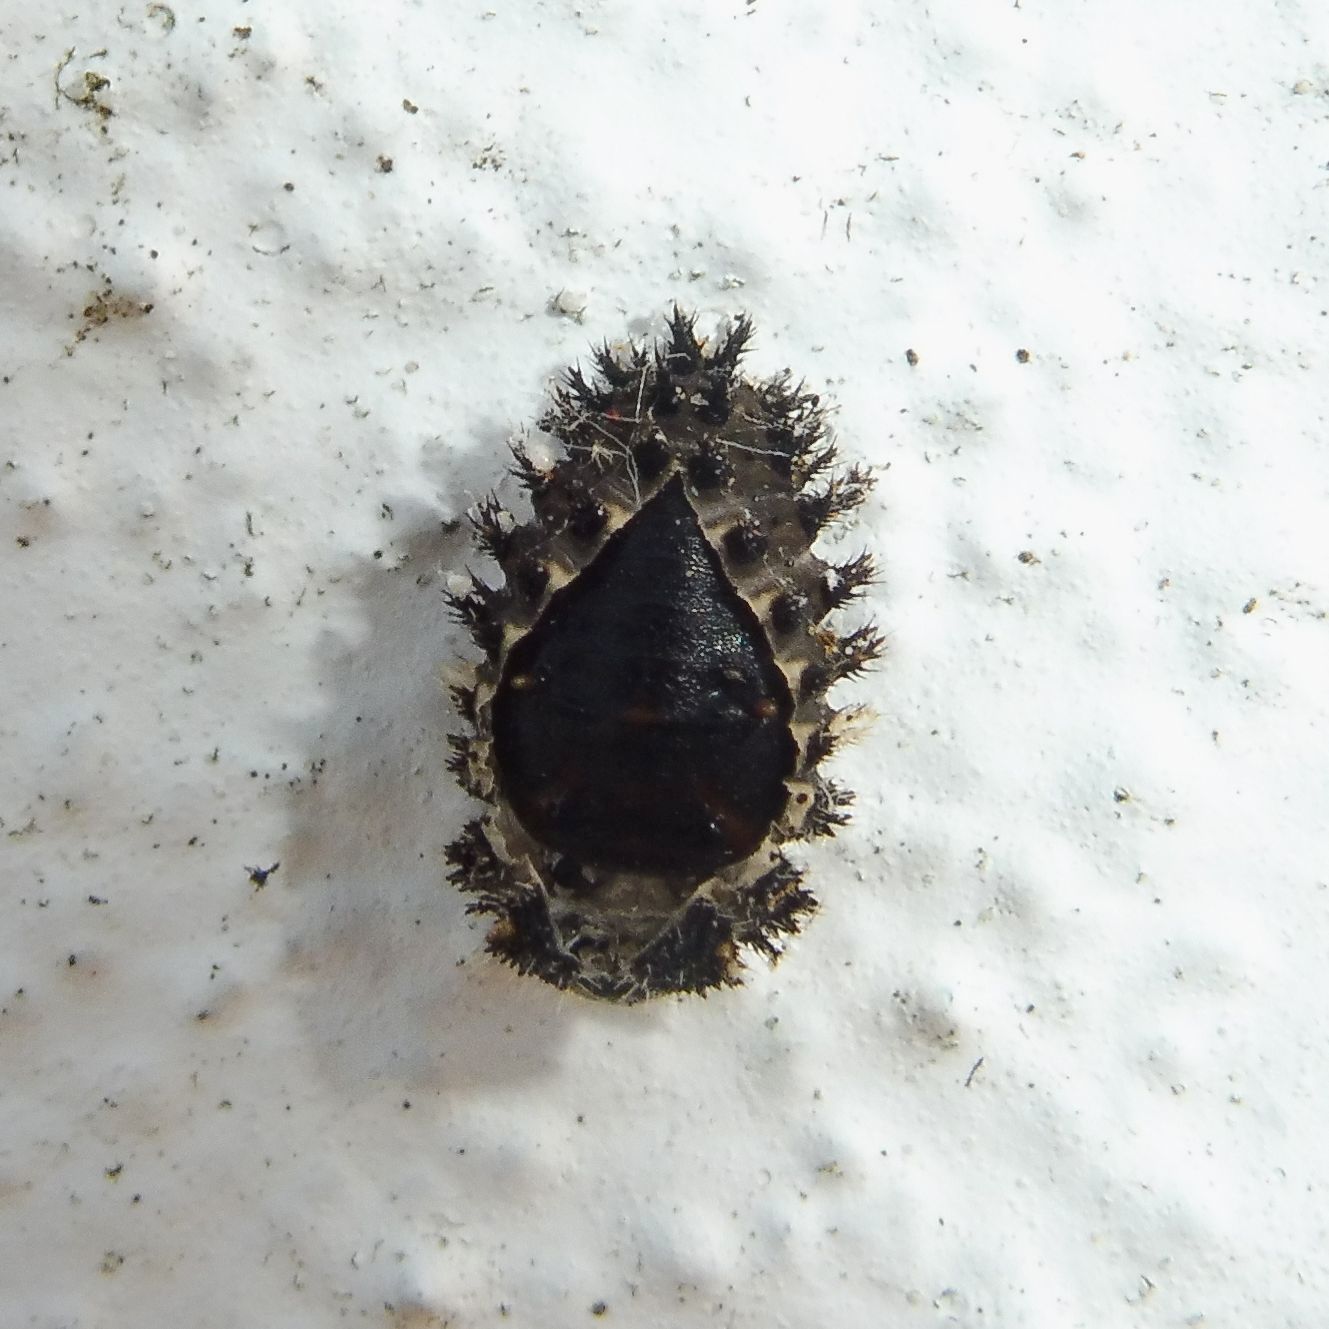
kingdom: Animalia
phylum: Arthropoda
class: Insecta
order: Coleoptera
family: Coccinellidae
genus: Brumus
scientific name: Brumus quadripustulatus
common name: Ladybird beetle
